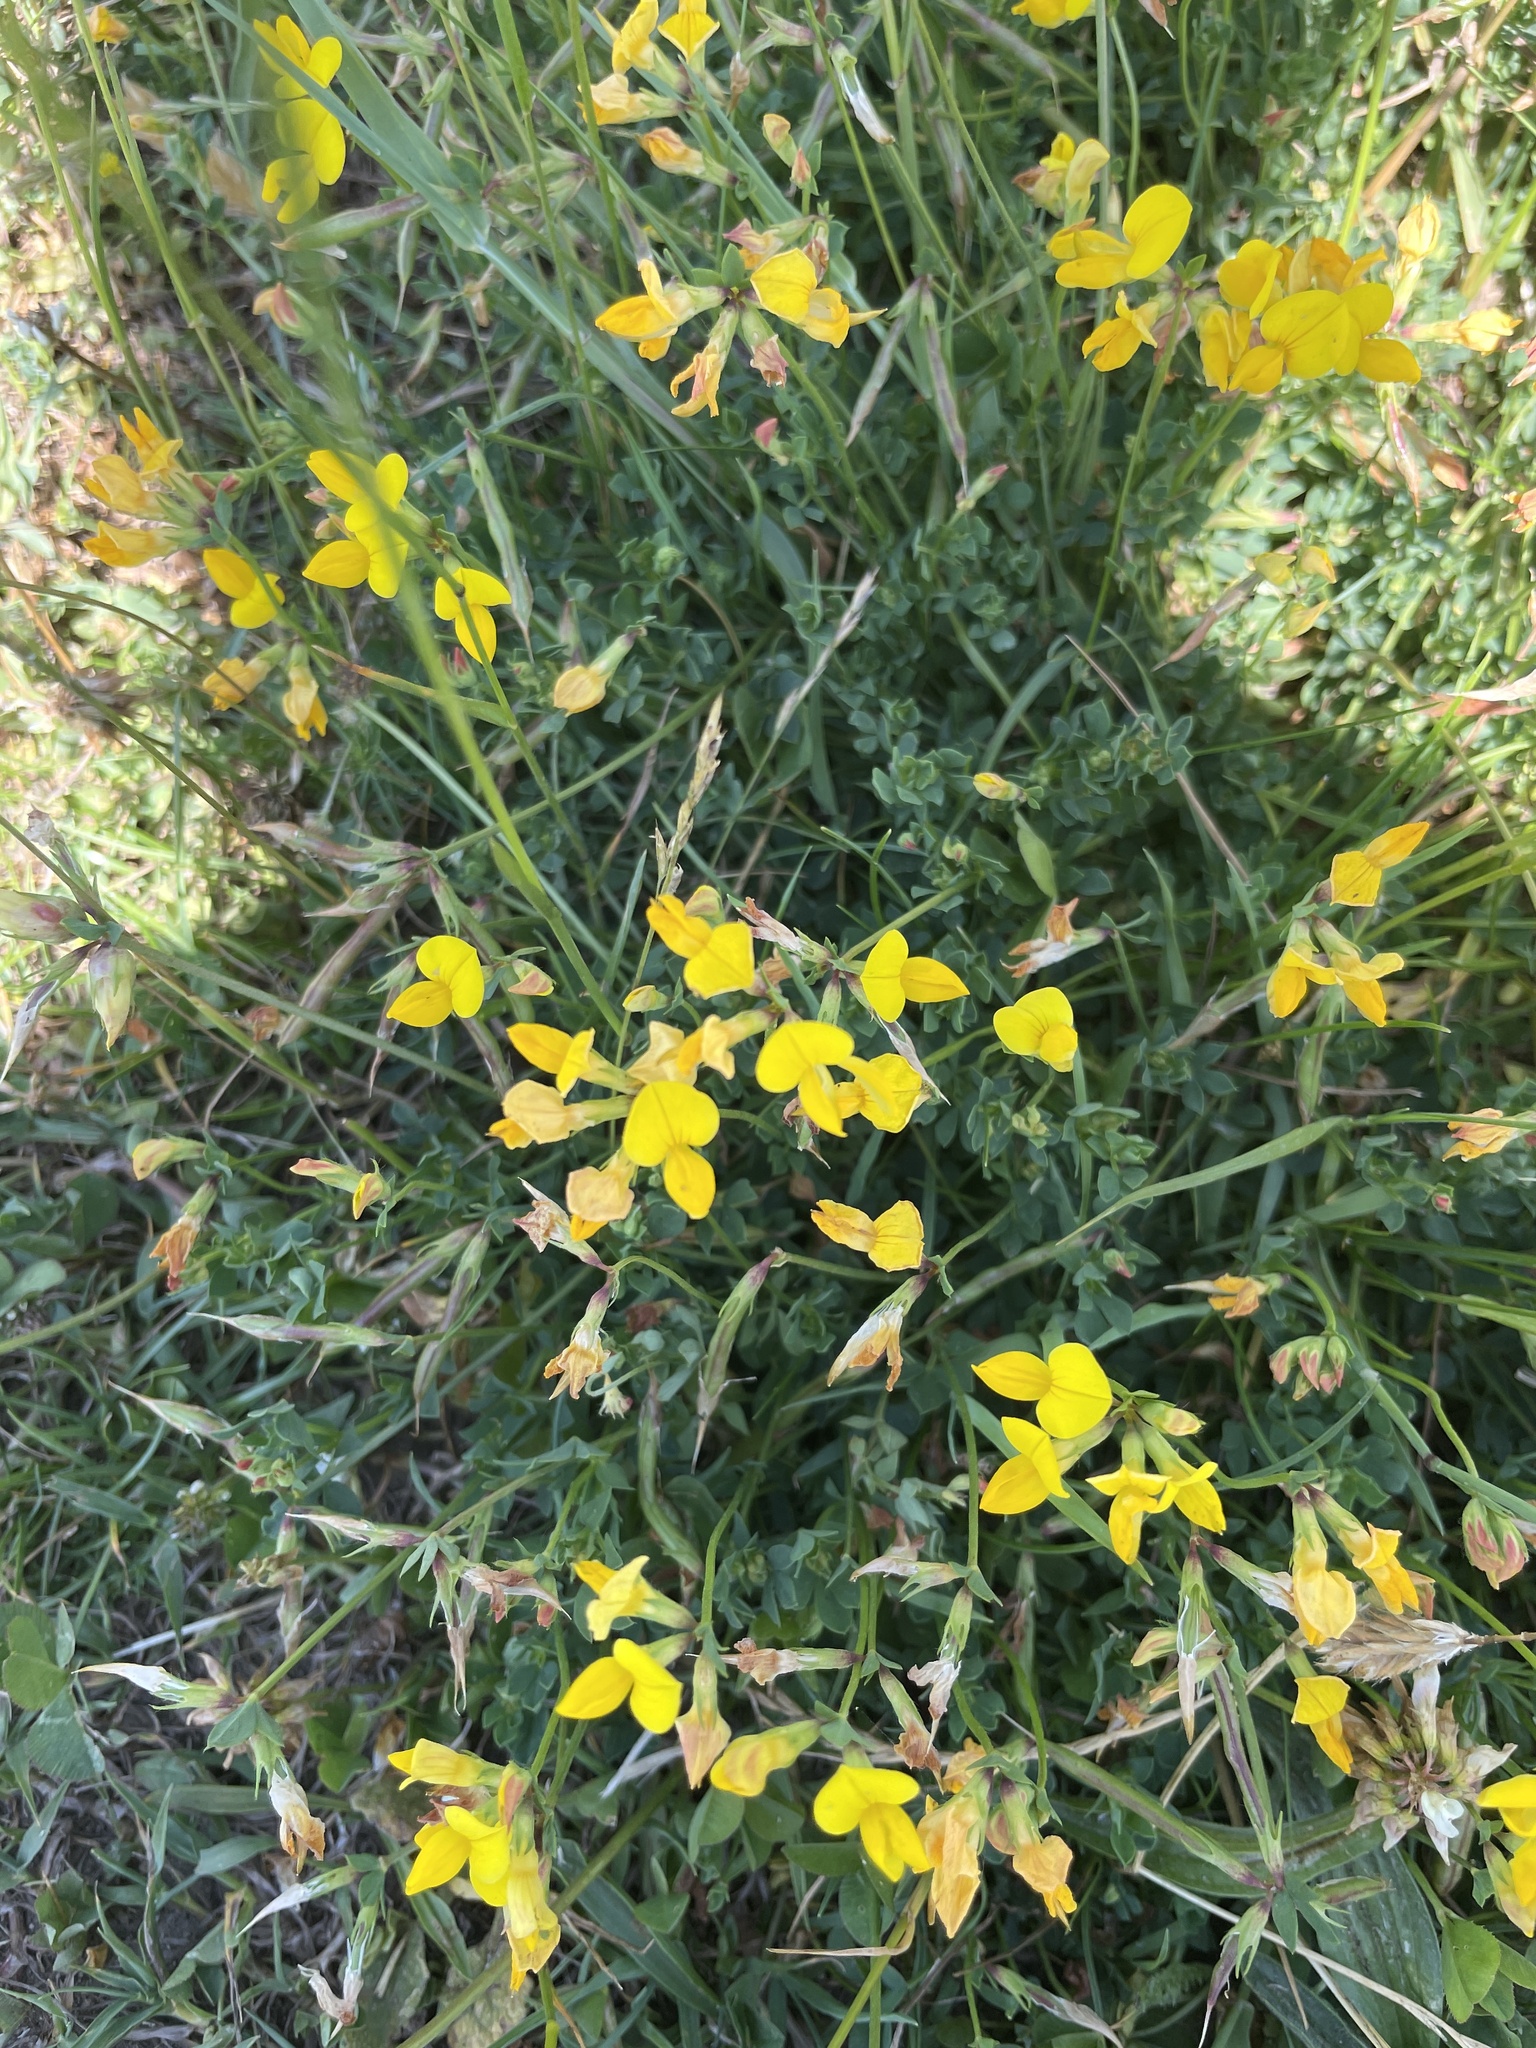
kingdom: Plantae
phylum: Tracheophyta
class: Magnoliopsida
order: Fabales
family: Fabaceae
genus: Lotus
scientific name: Lotus corniculatus
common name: Common bird's-foot-trefoil
